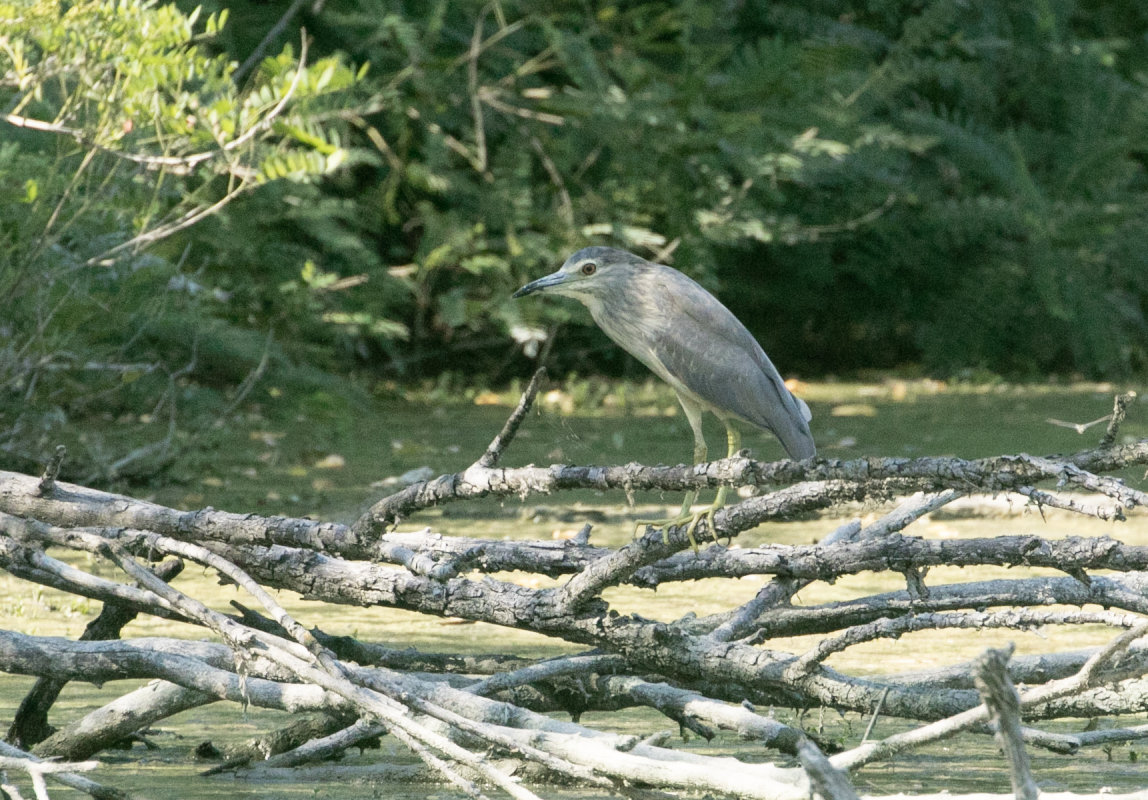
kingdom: Animalia
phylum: Chordata
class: Aves
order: Pelecaniformes
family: Ardeidae
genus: Nycticorax
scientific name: Nycticorax nycticorax
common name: Black-crowned night heron
